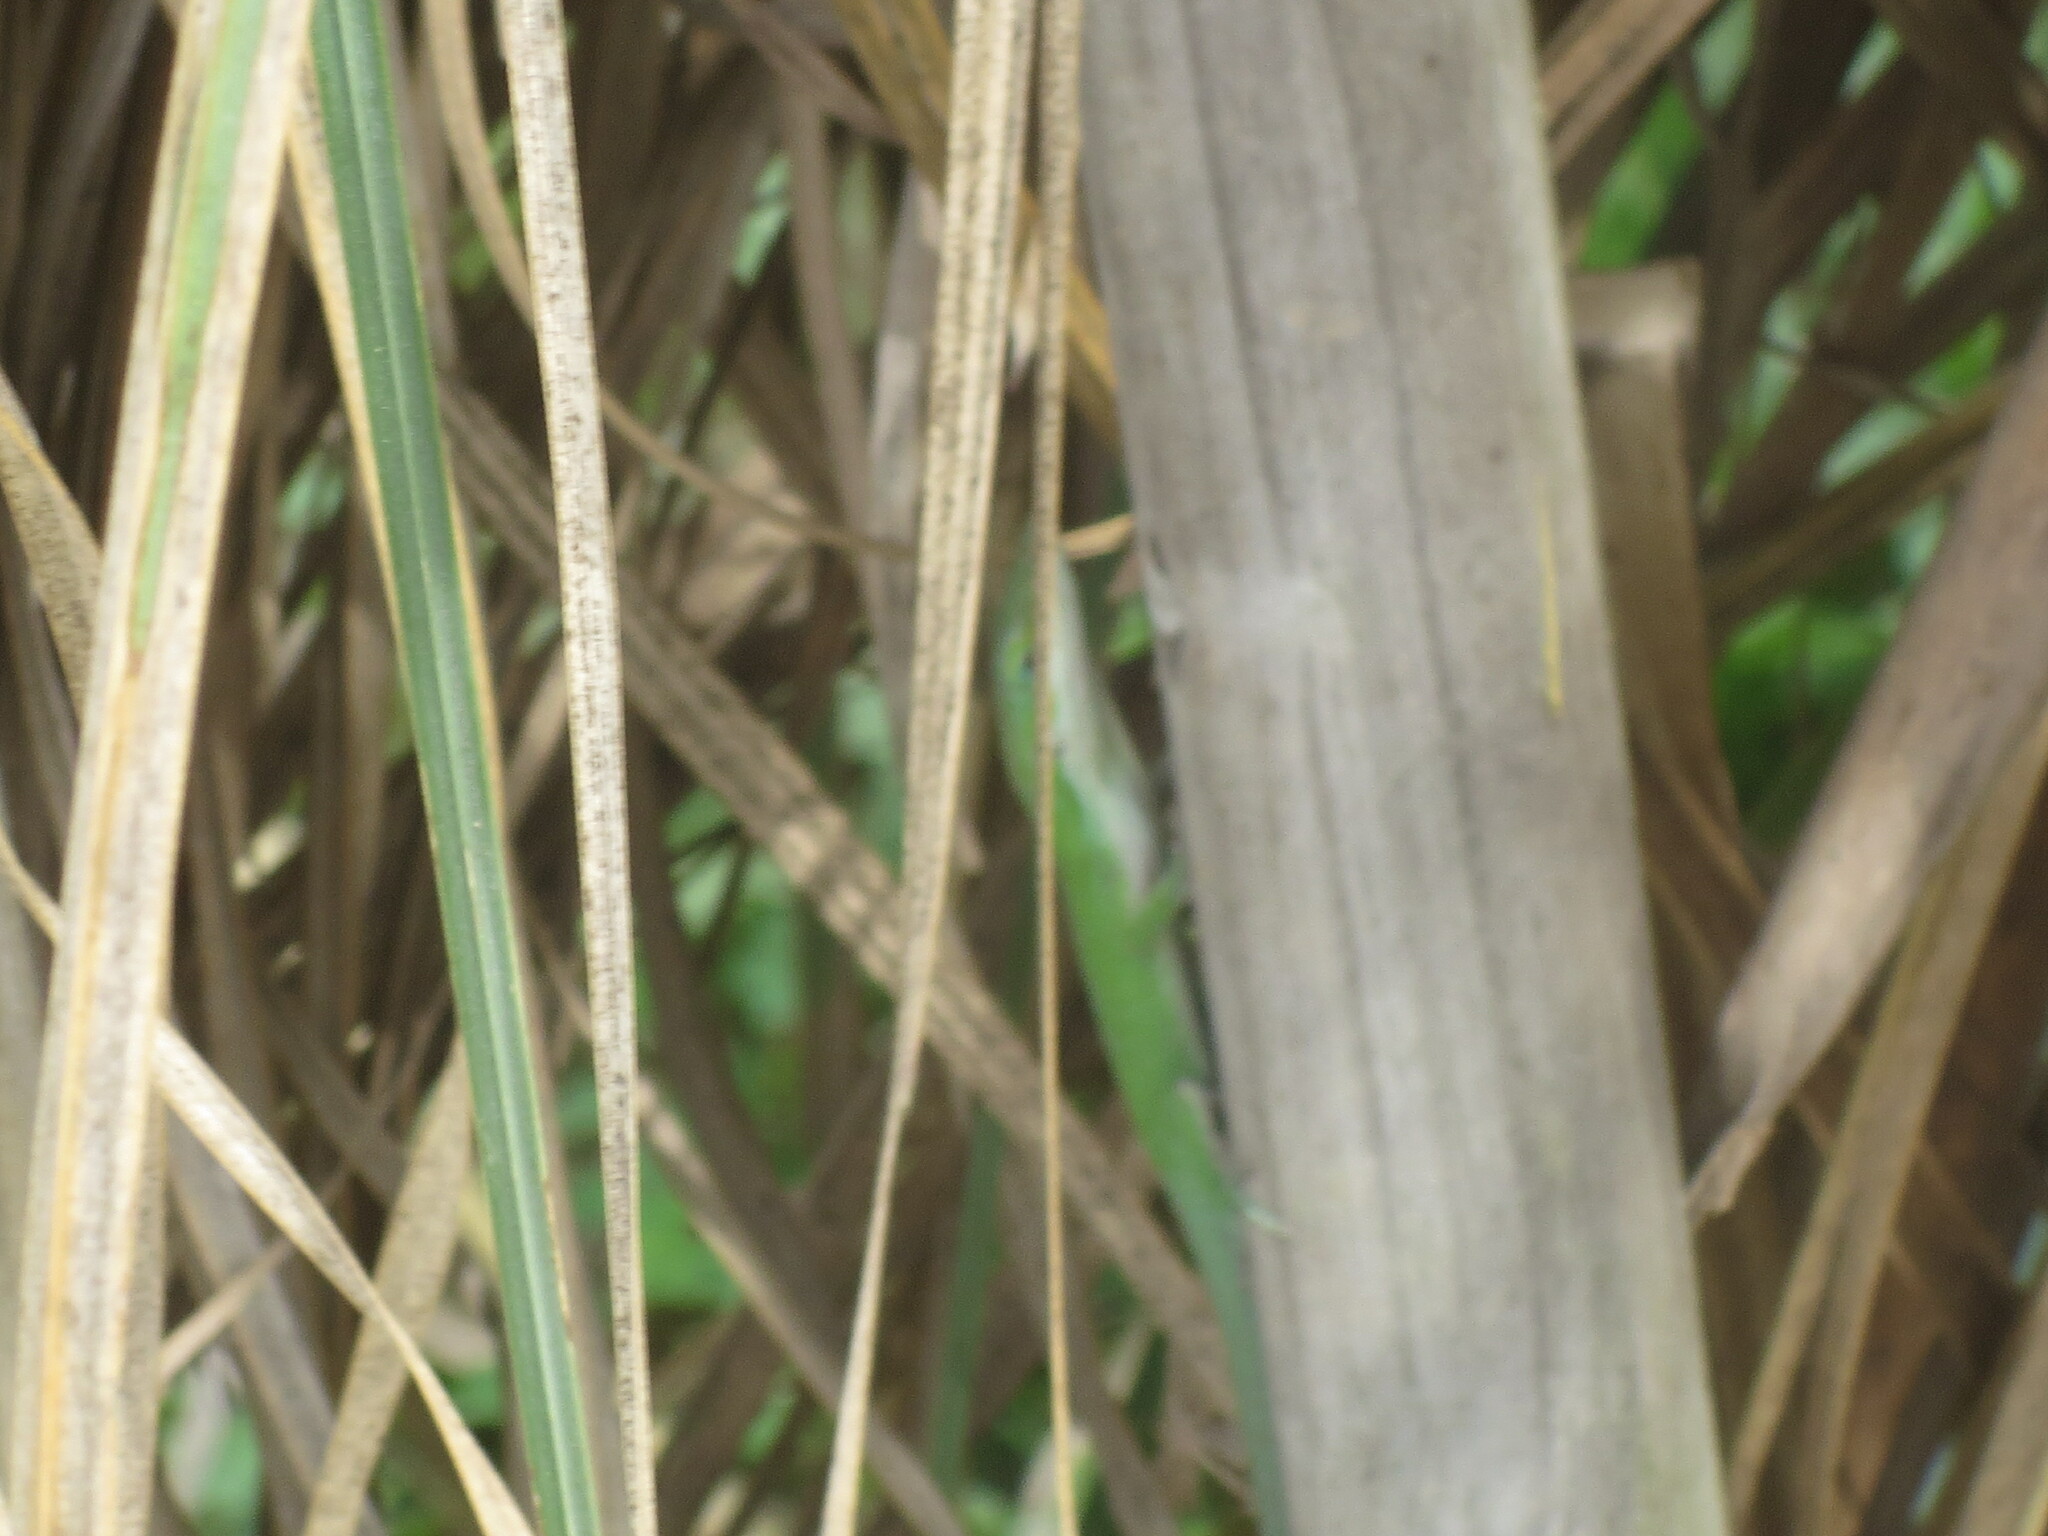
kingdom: Animalia
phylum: Chordata
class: Squamata
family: Dactyloidae
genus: Anolis
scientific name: Anolis carolinensis
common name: Green anole
